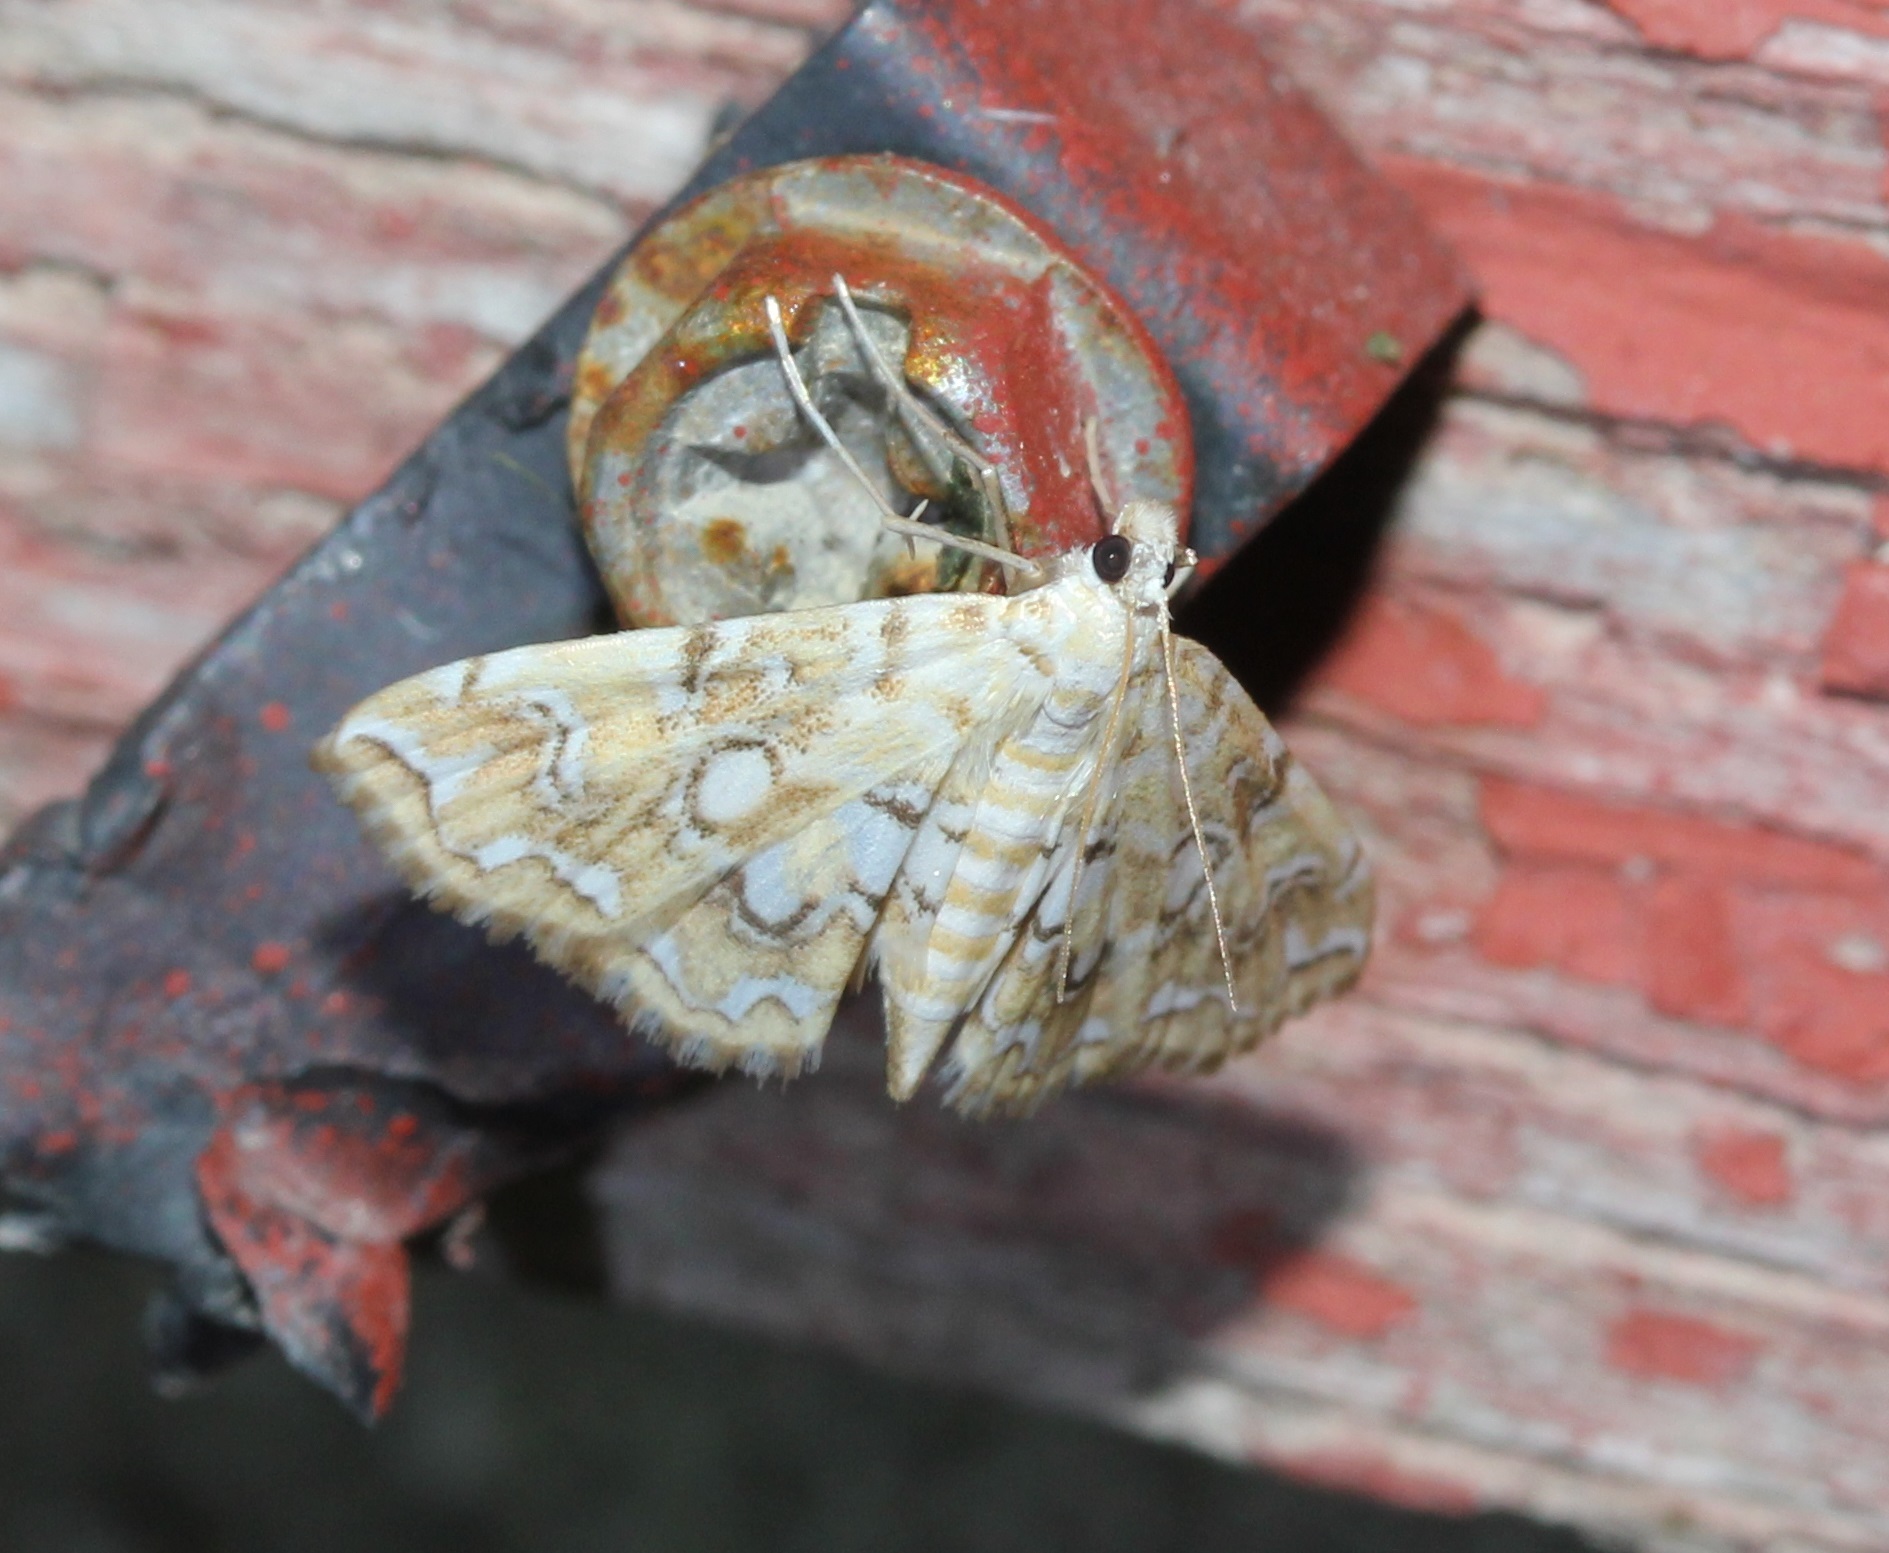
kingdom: Animalia
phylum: Arthropoda
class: Insecta
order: Lepidoptera
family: Crambidae
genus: Elophila
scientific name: Elophila icciusalis
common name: Pondside pyralid moth
